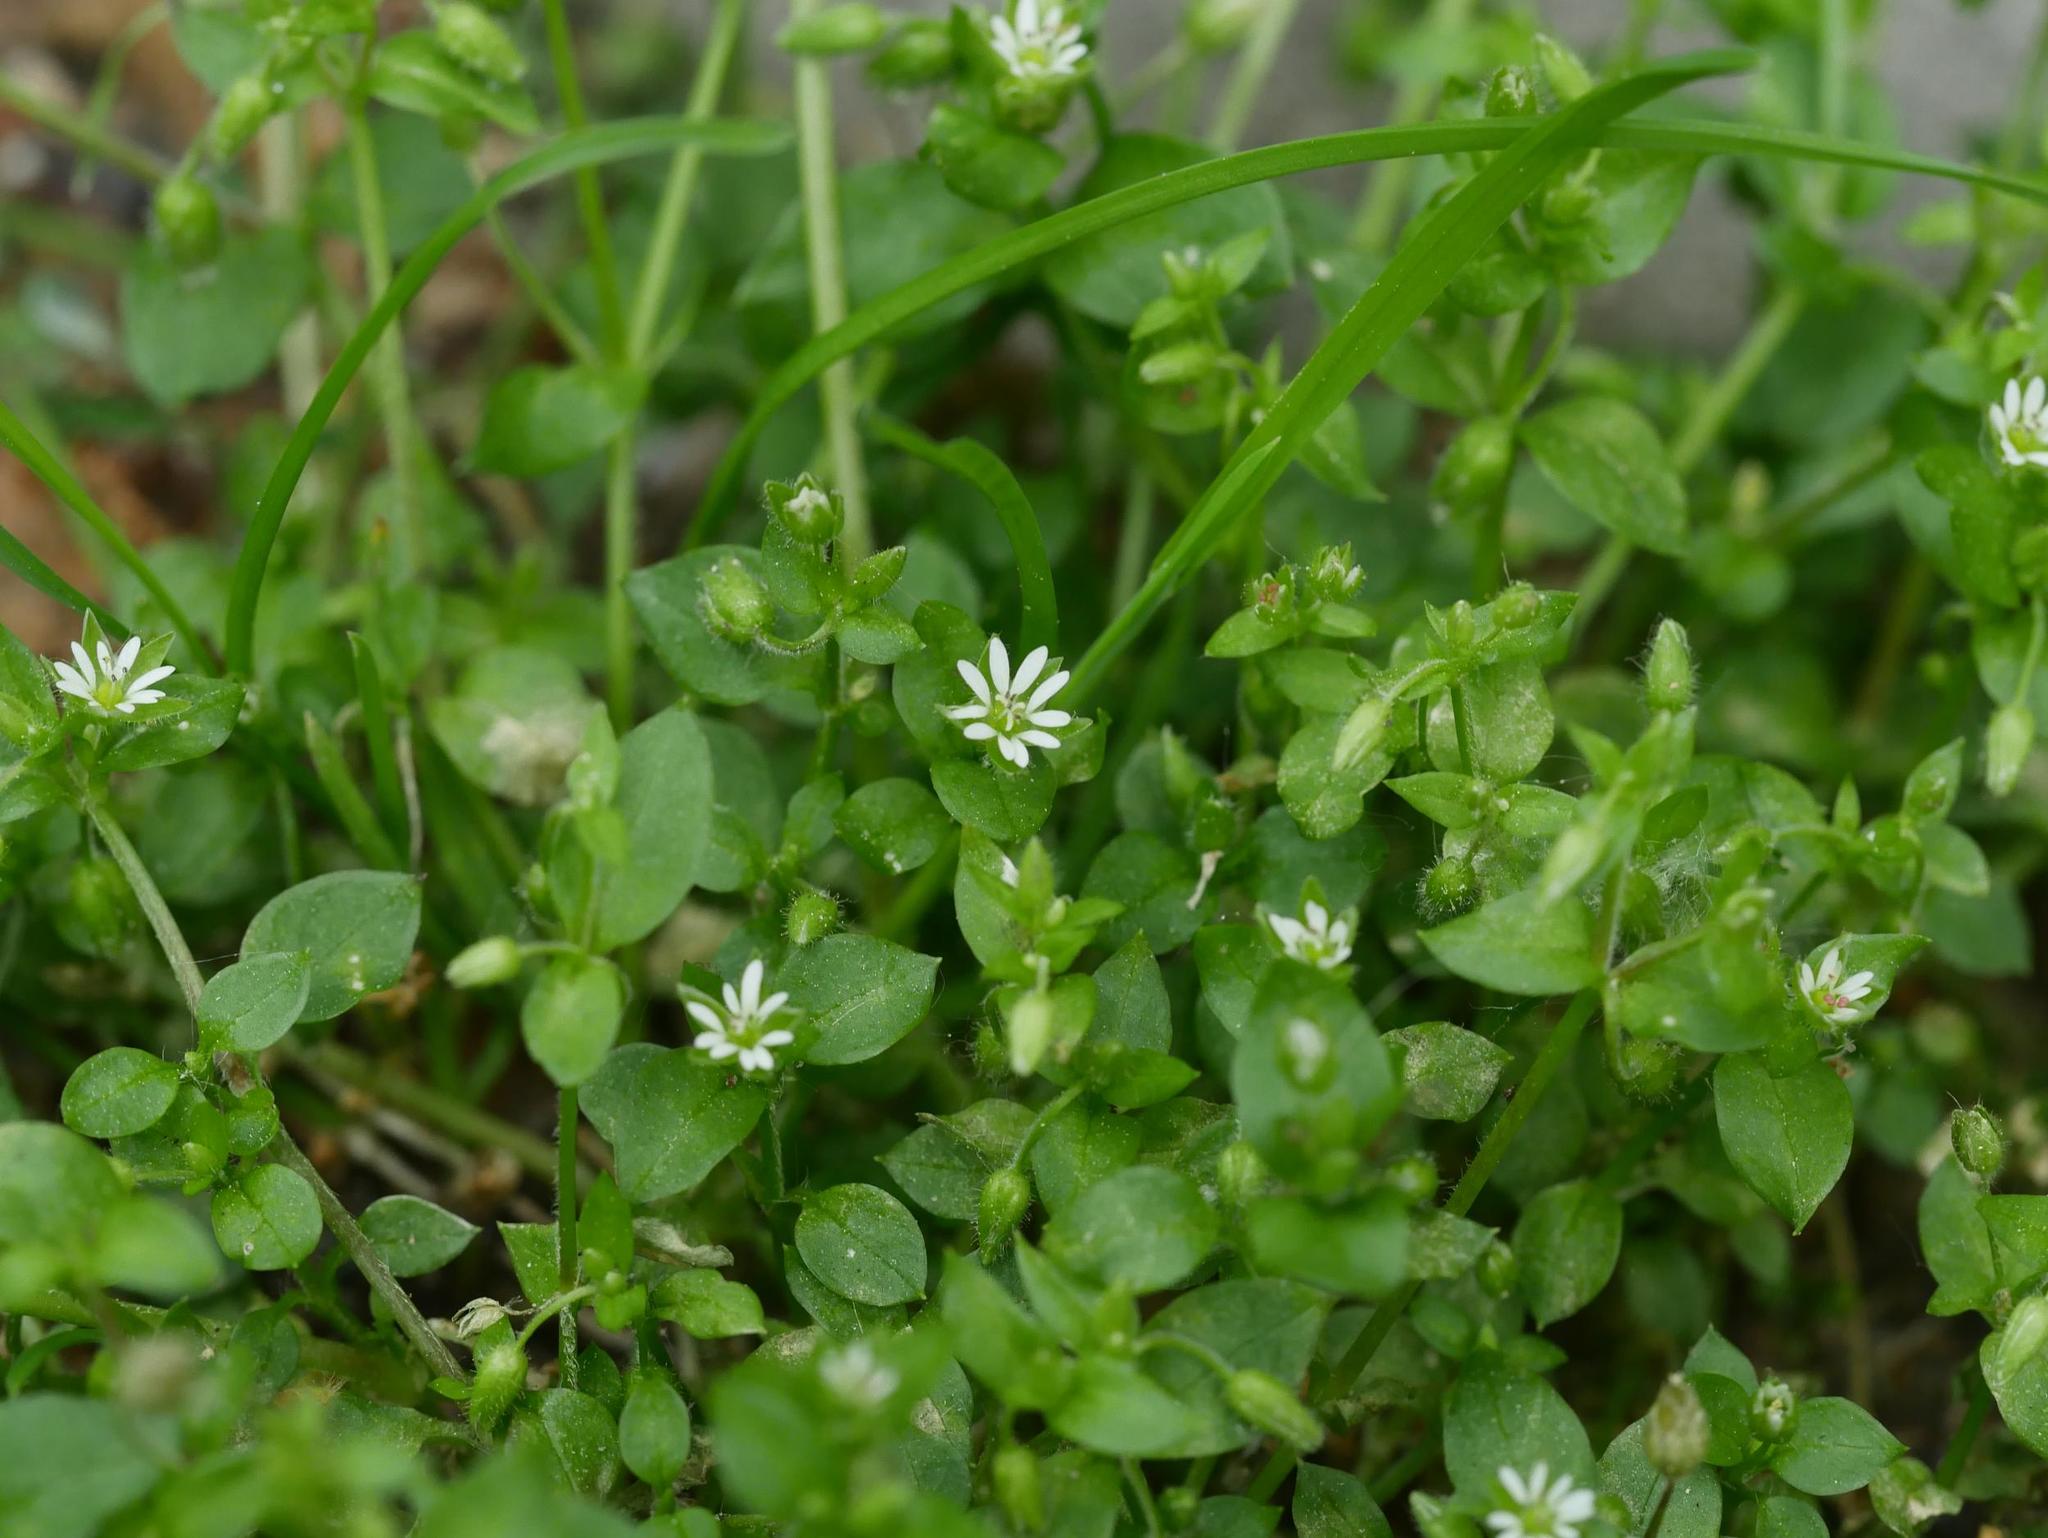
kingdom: Plantae
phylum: Tracheophyta
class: Magnoliopsida
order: Caryophyllales
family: Caryophyllaceae
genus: Stellaria
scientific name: Stellaria media
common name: Common chickweed
